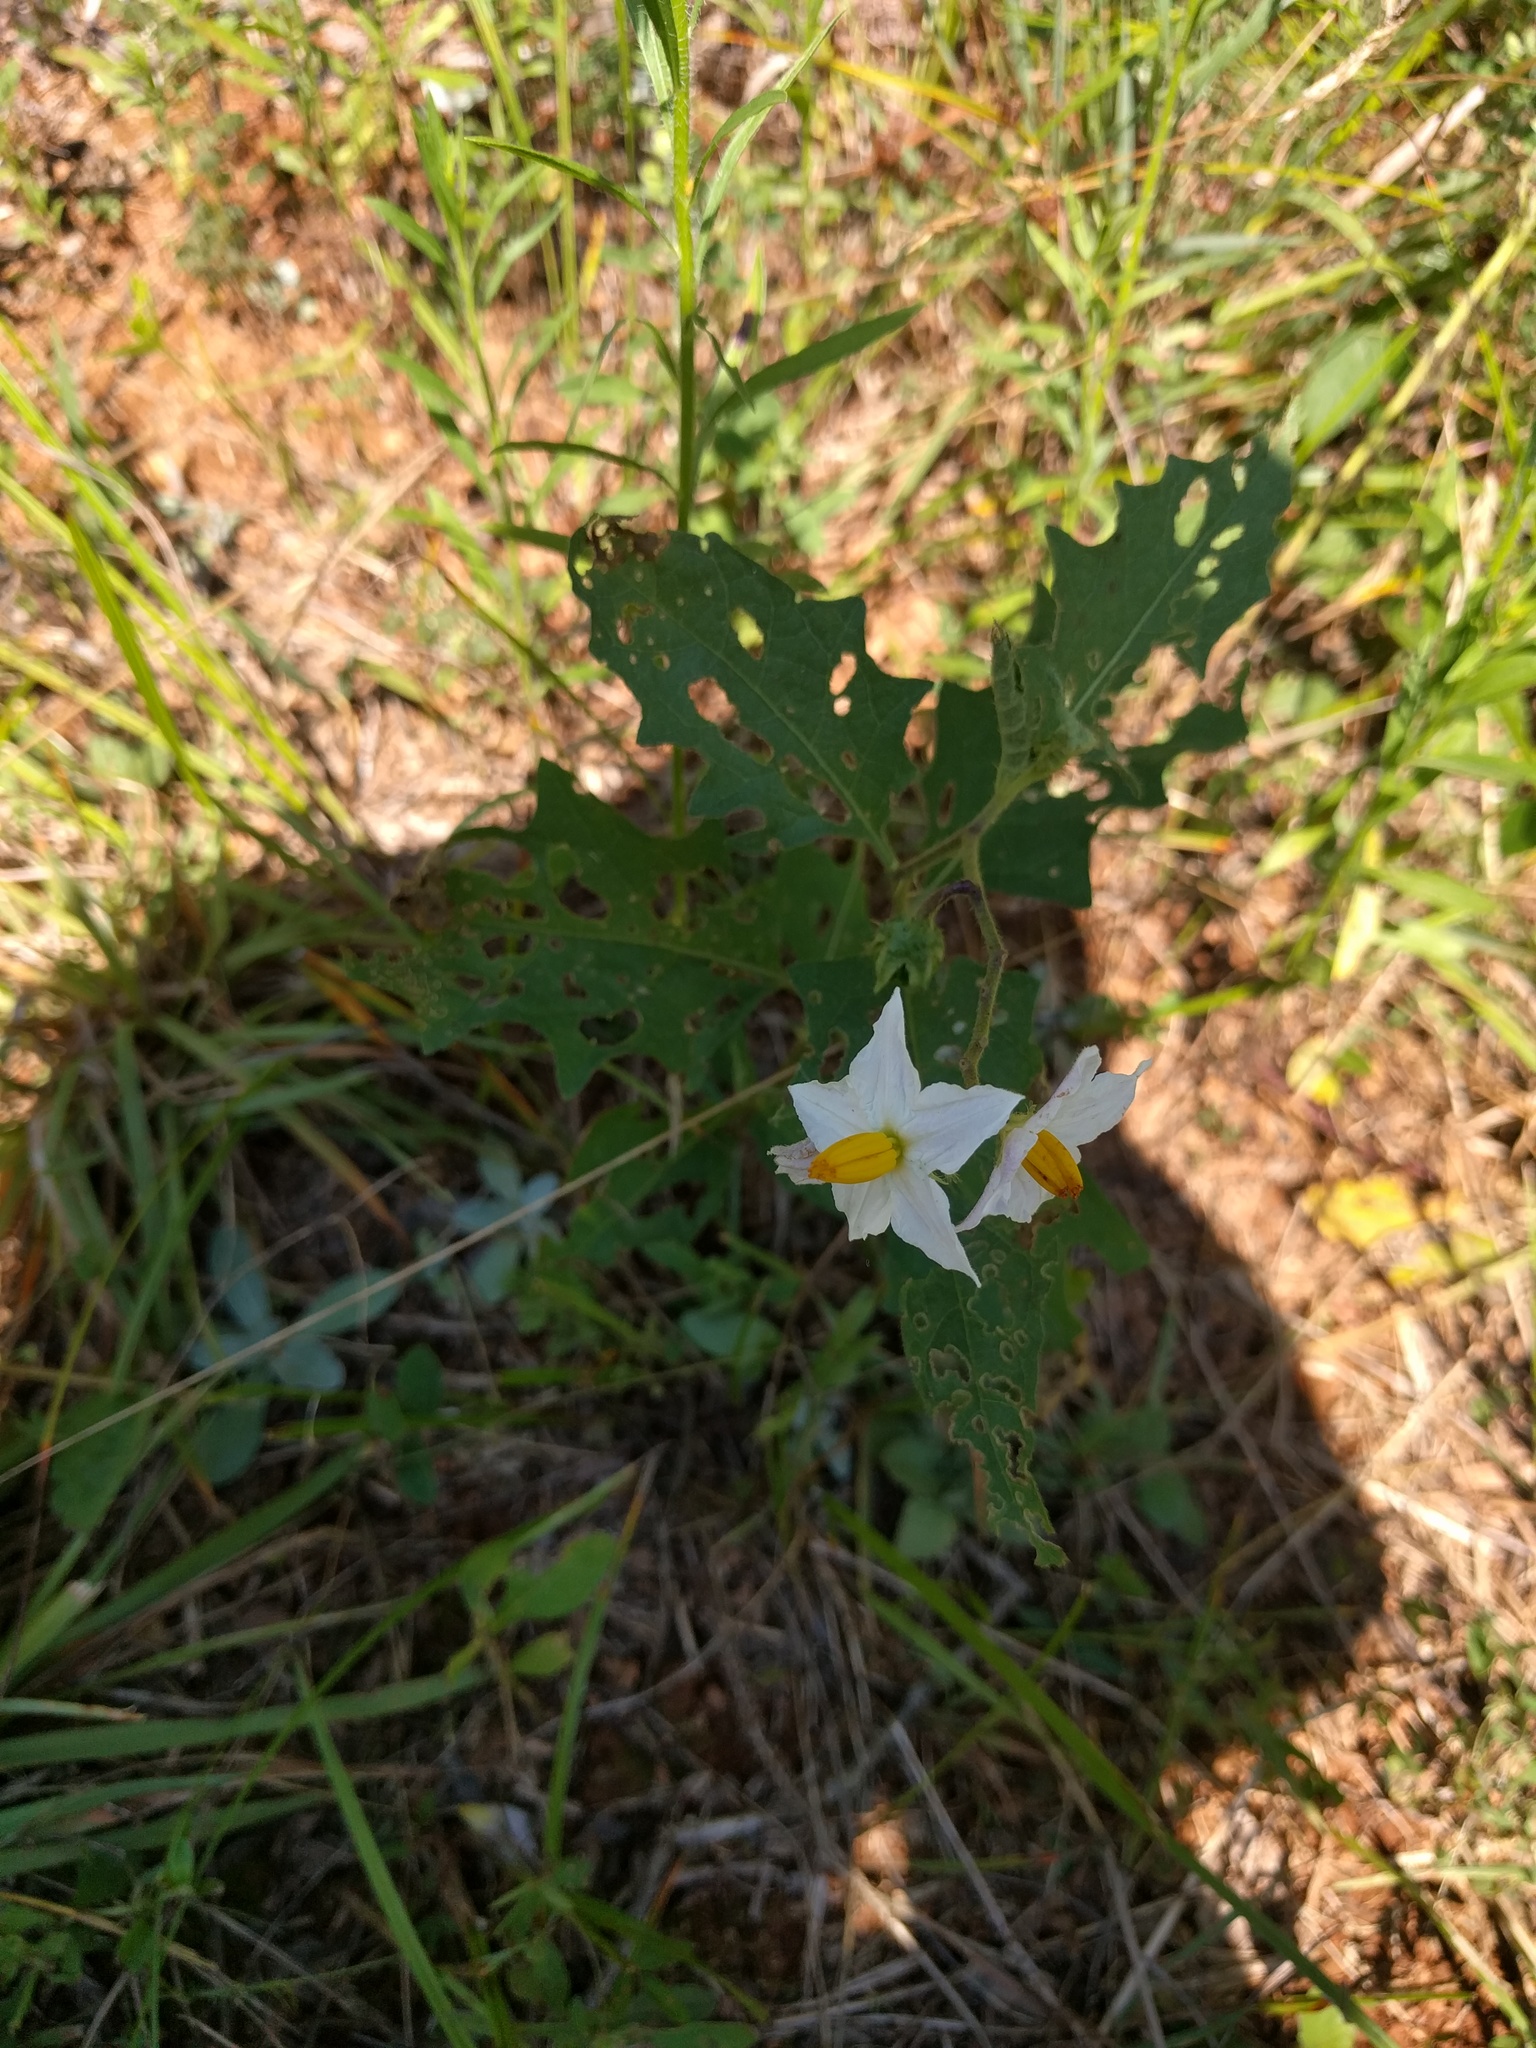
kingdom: Plantae
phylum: Tracheophyta
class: Magnoliopsida
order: Solanales
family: Solanaceae
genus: Solanum
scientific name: Solanum carolinense
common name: Horse-nettle
